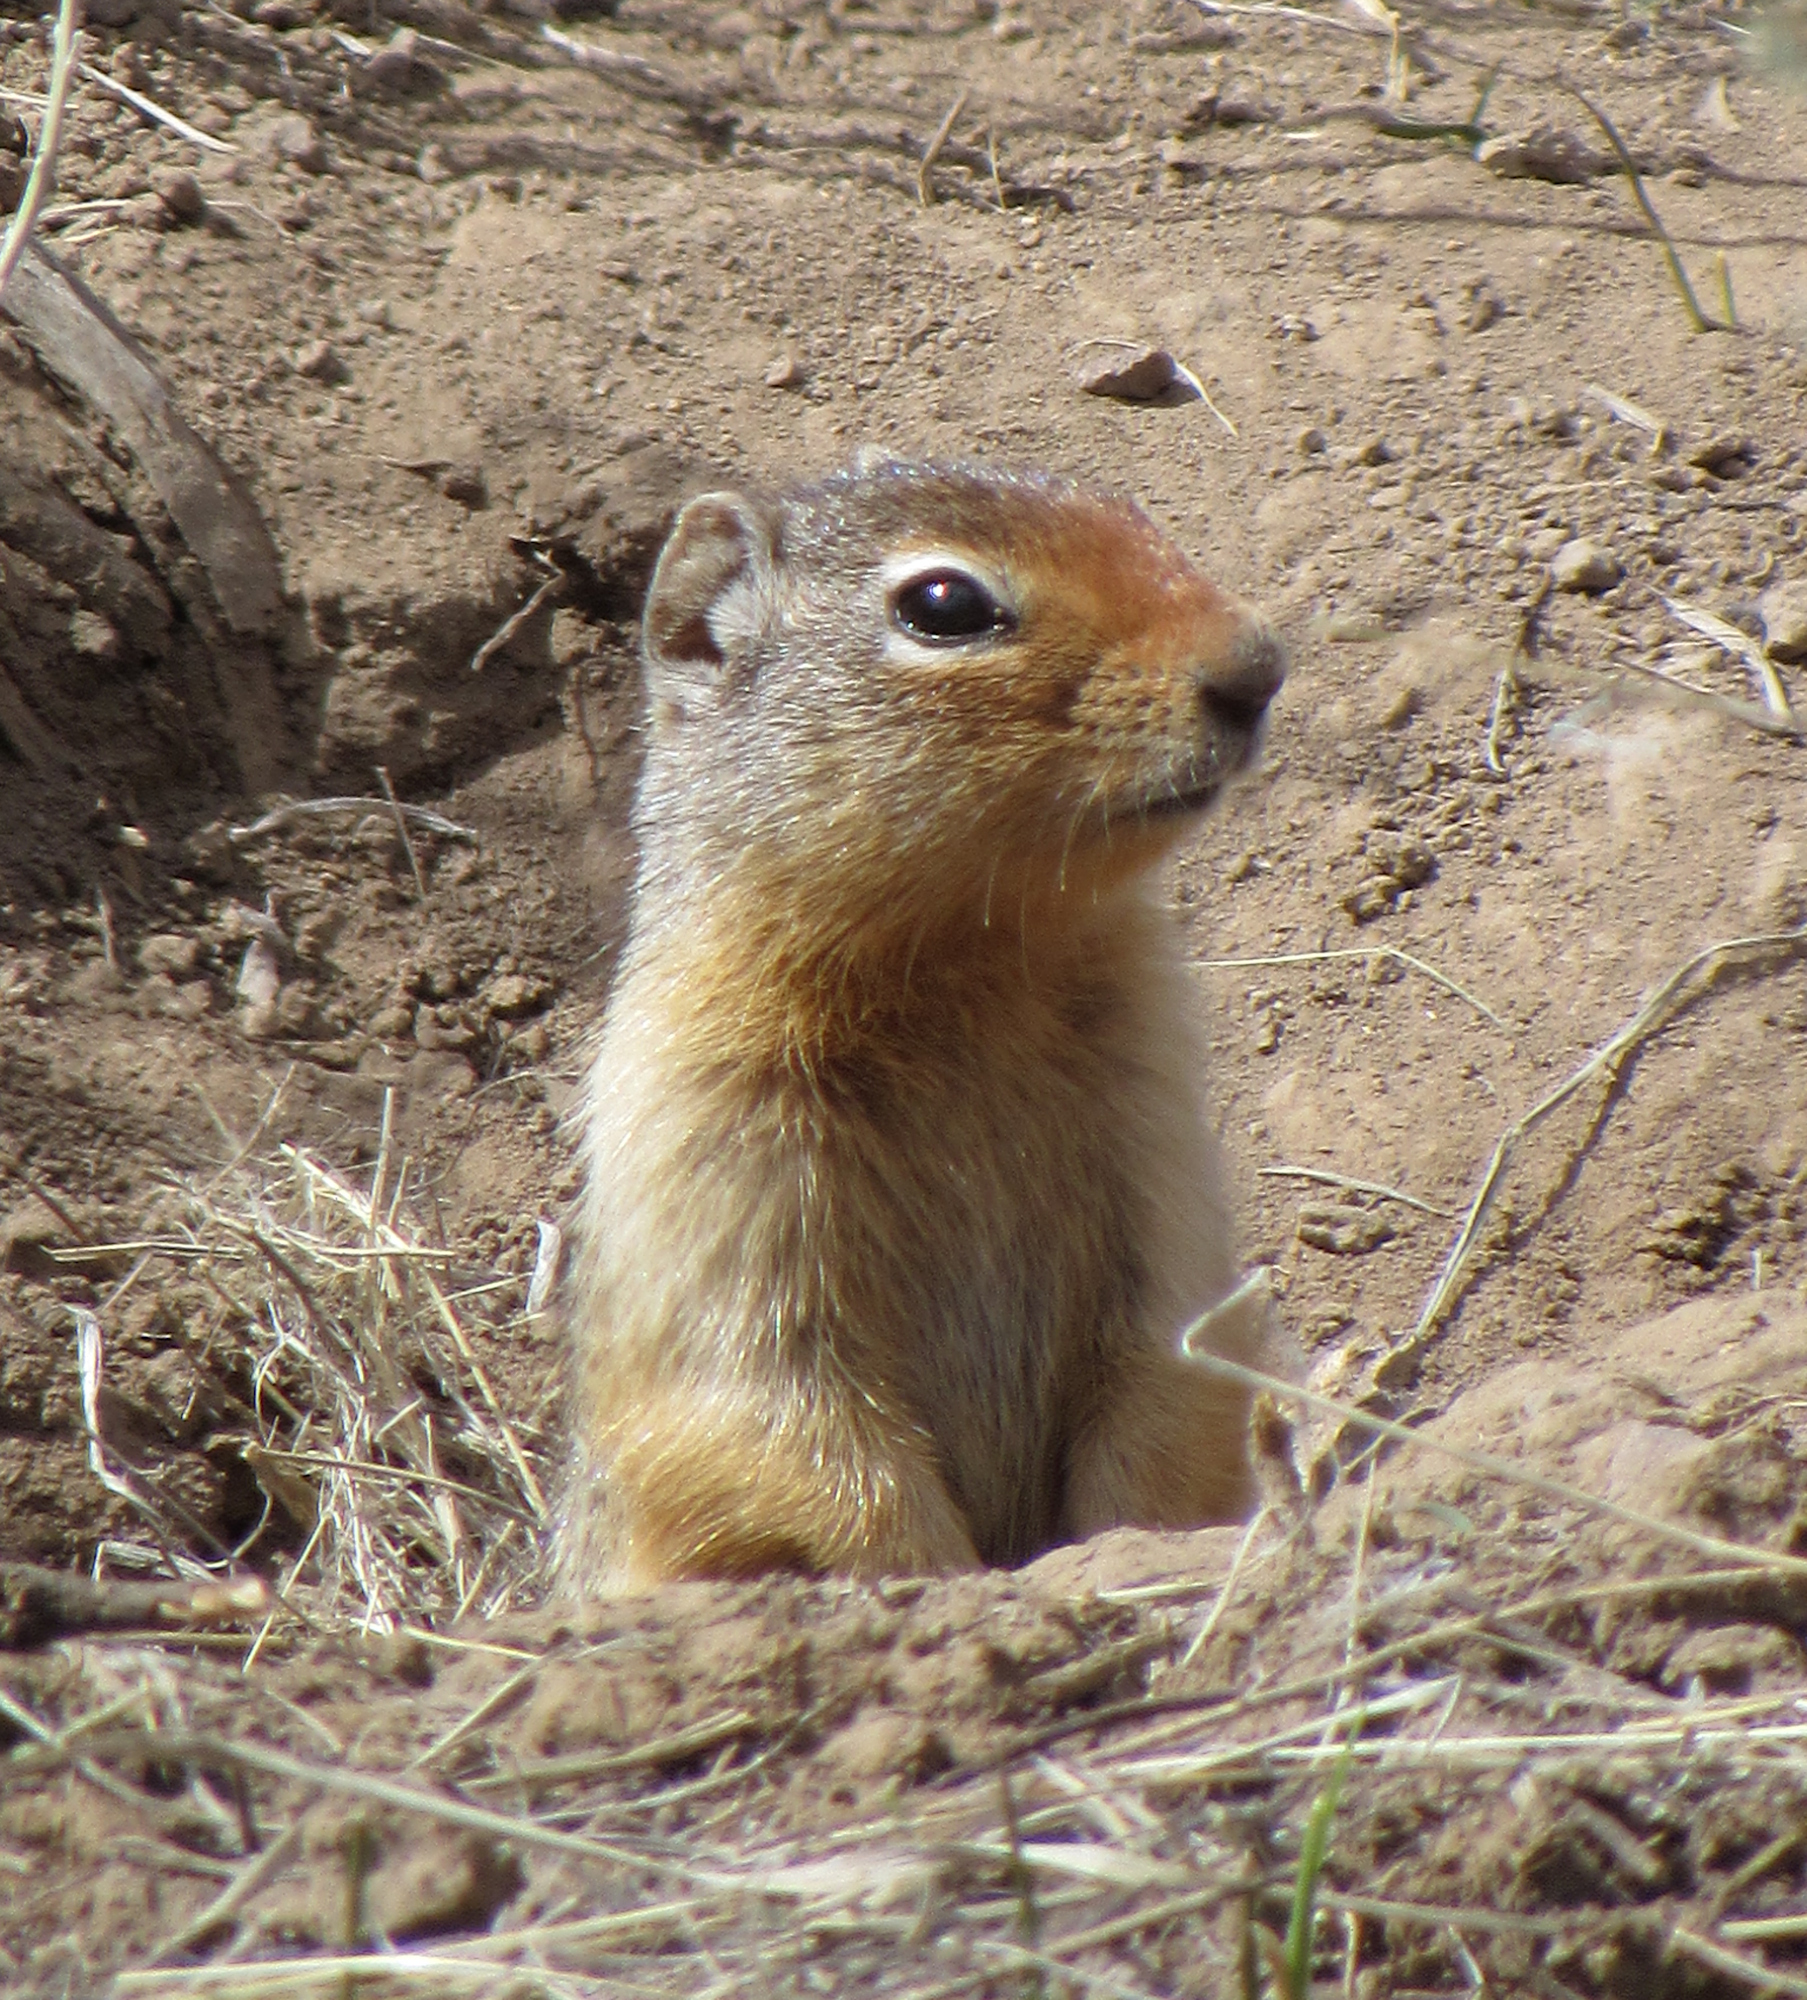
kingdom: Animalia
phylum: Chordata
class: Mammalia
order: Rodentia
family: Sciuridae
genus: Urocitellus
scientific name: Urocitellus columbianus
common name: Columbian ground squirrel
